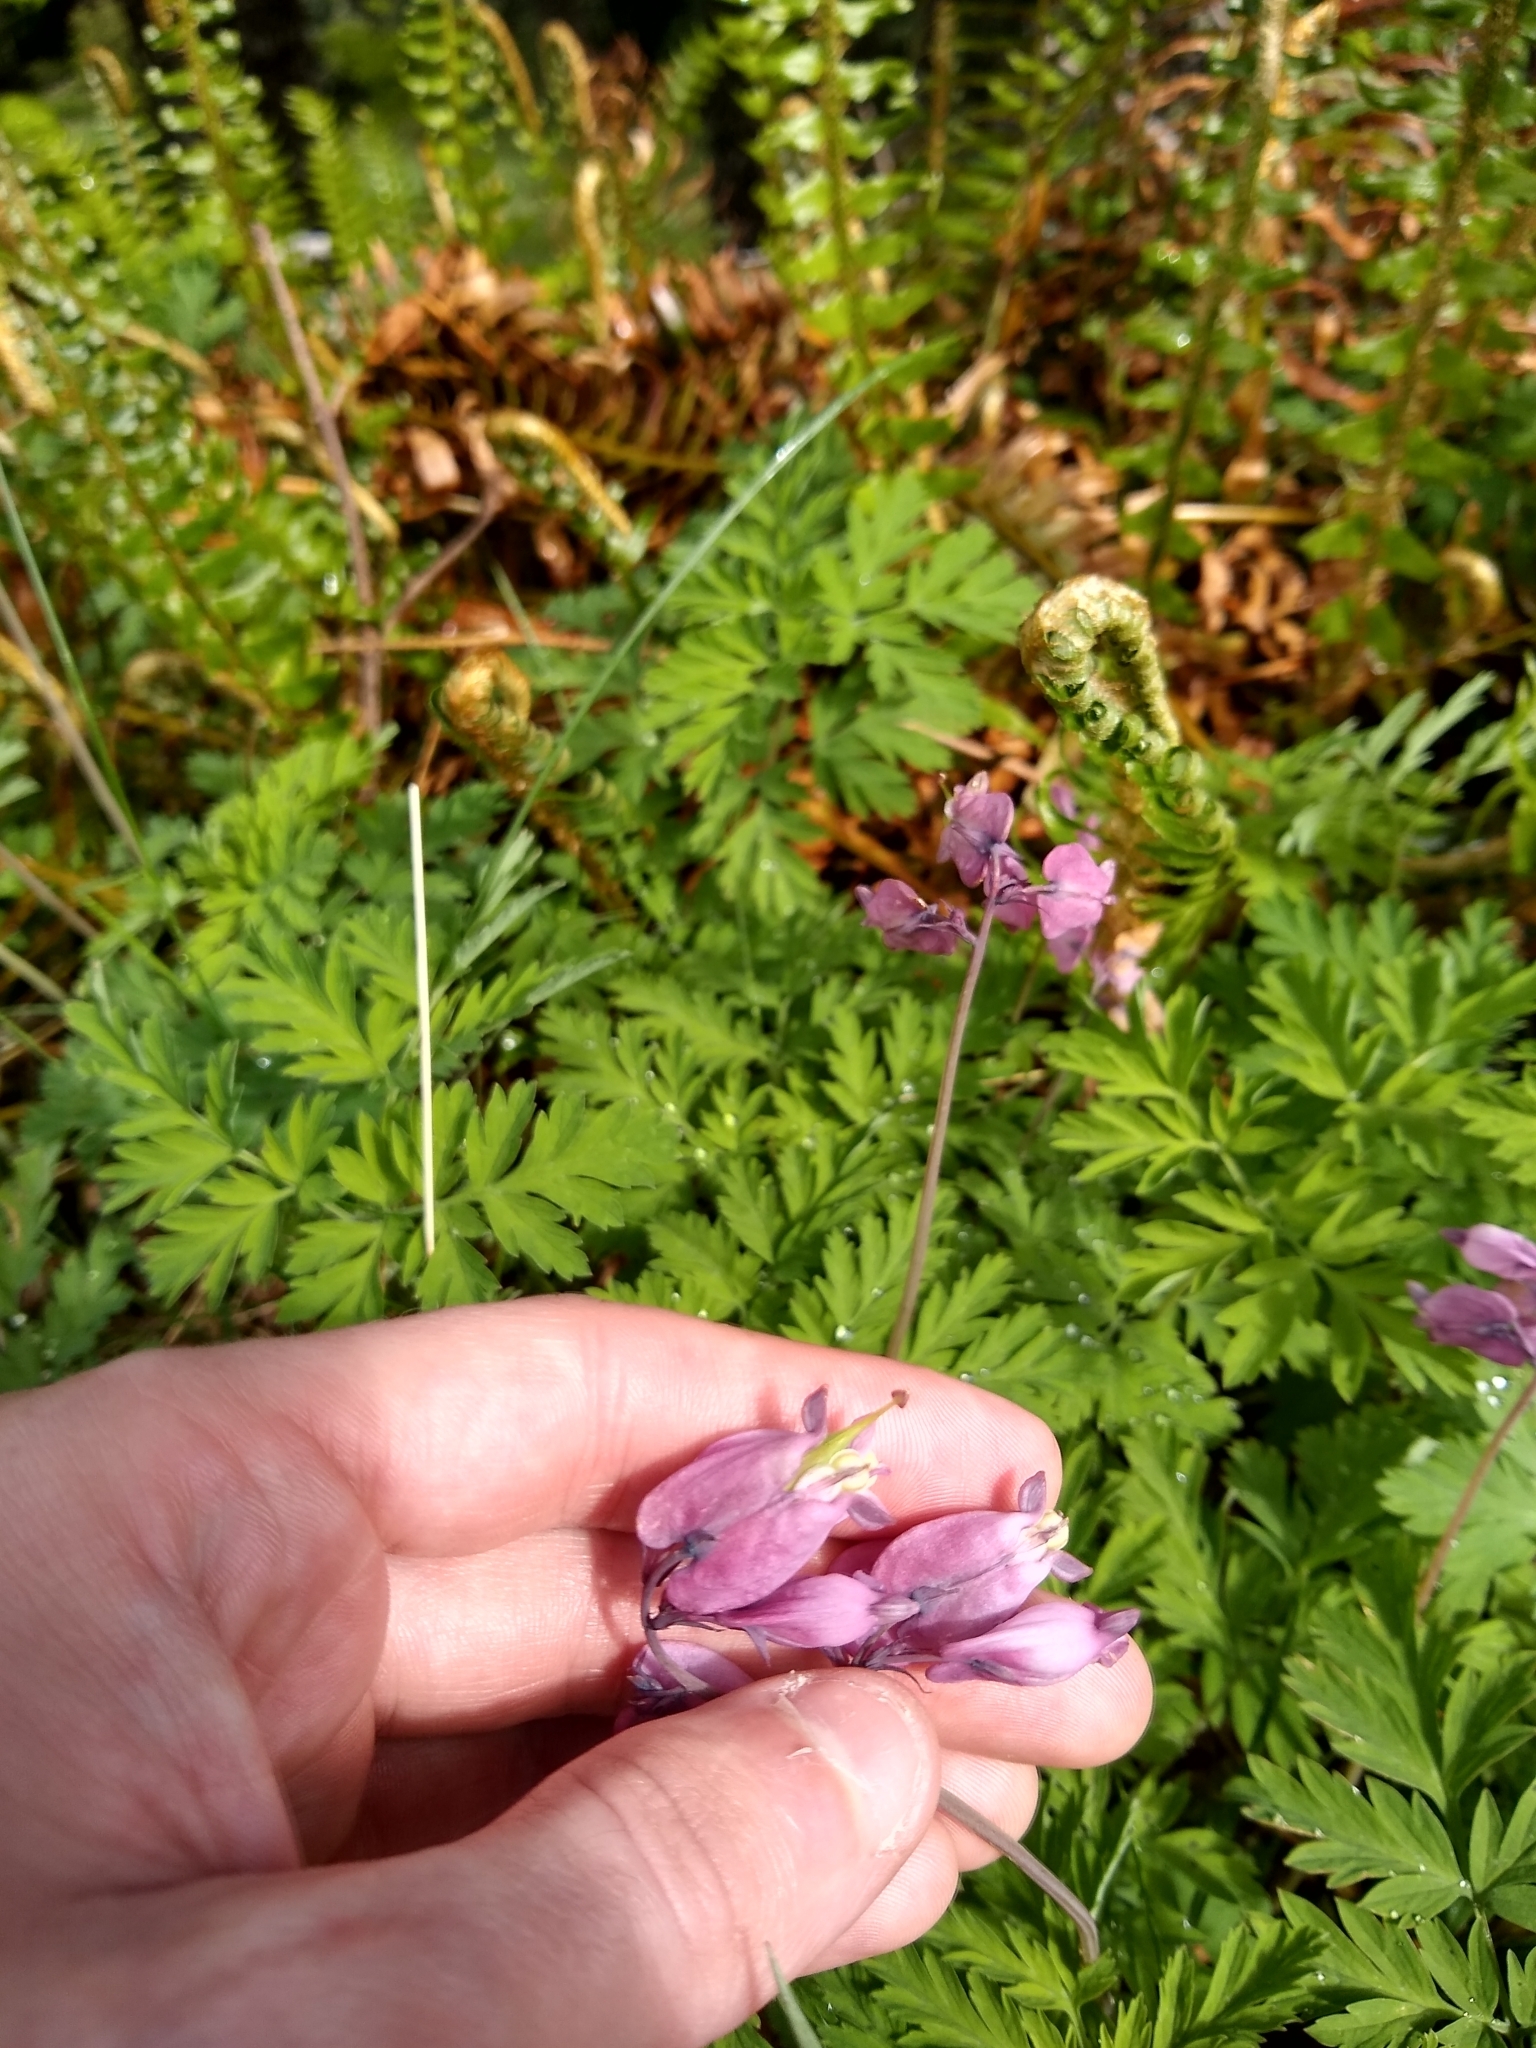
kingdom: Plantae
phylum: Tracheophyta
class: Magnoliopsida
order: Ranunculales
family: Papaveraceae
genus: Dicentra
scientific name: Dicentra formosa
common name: Bleeding-heart
